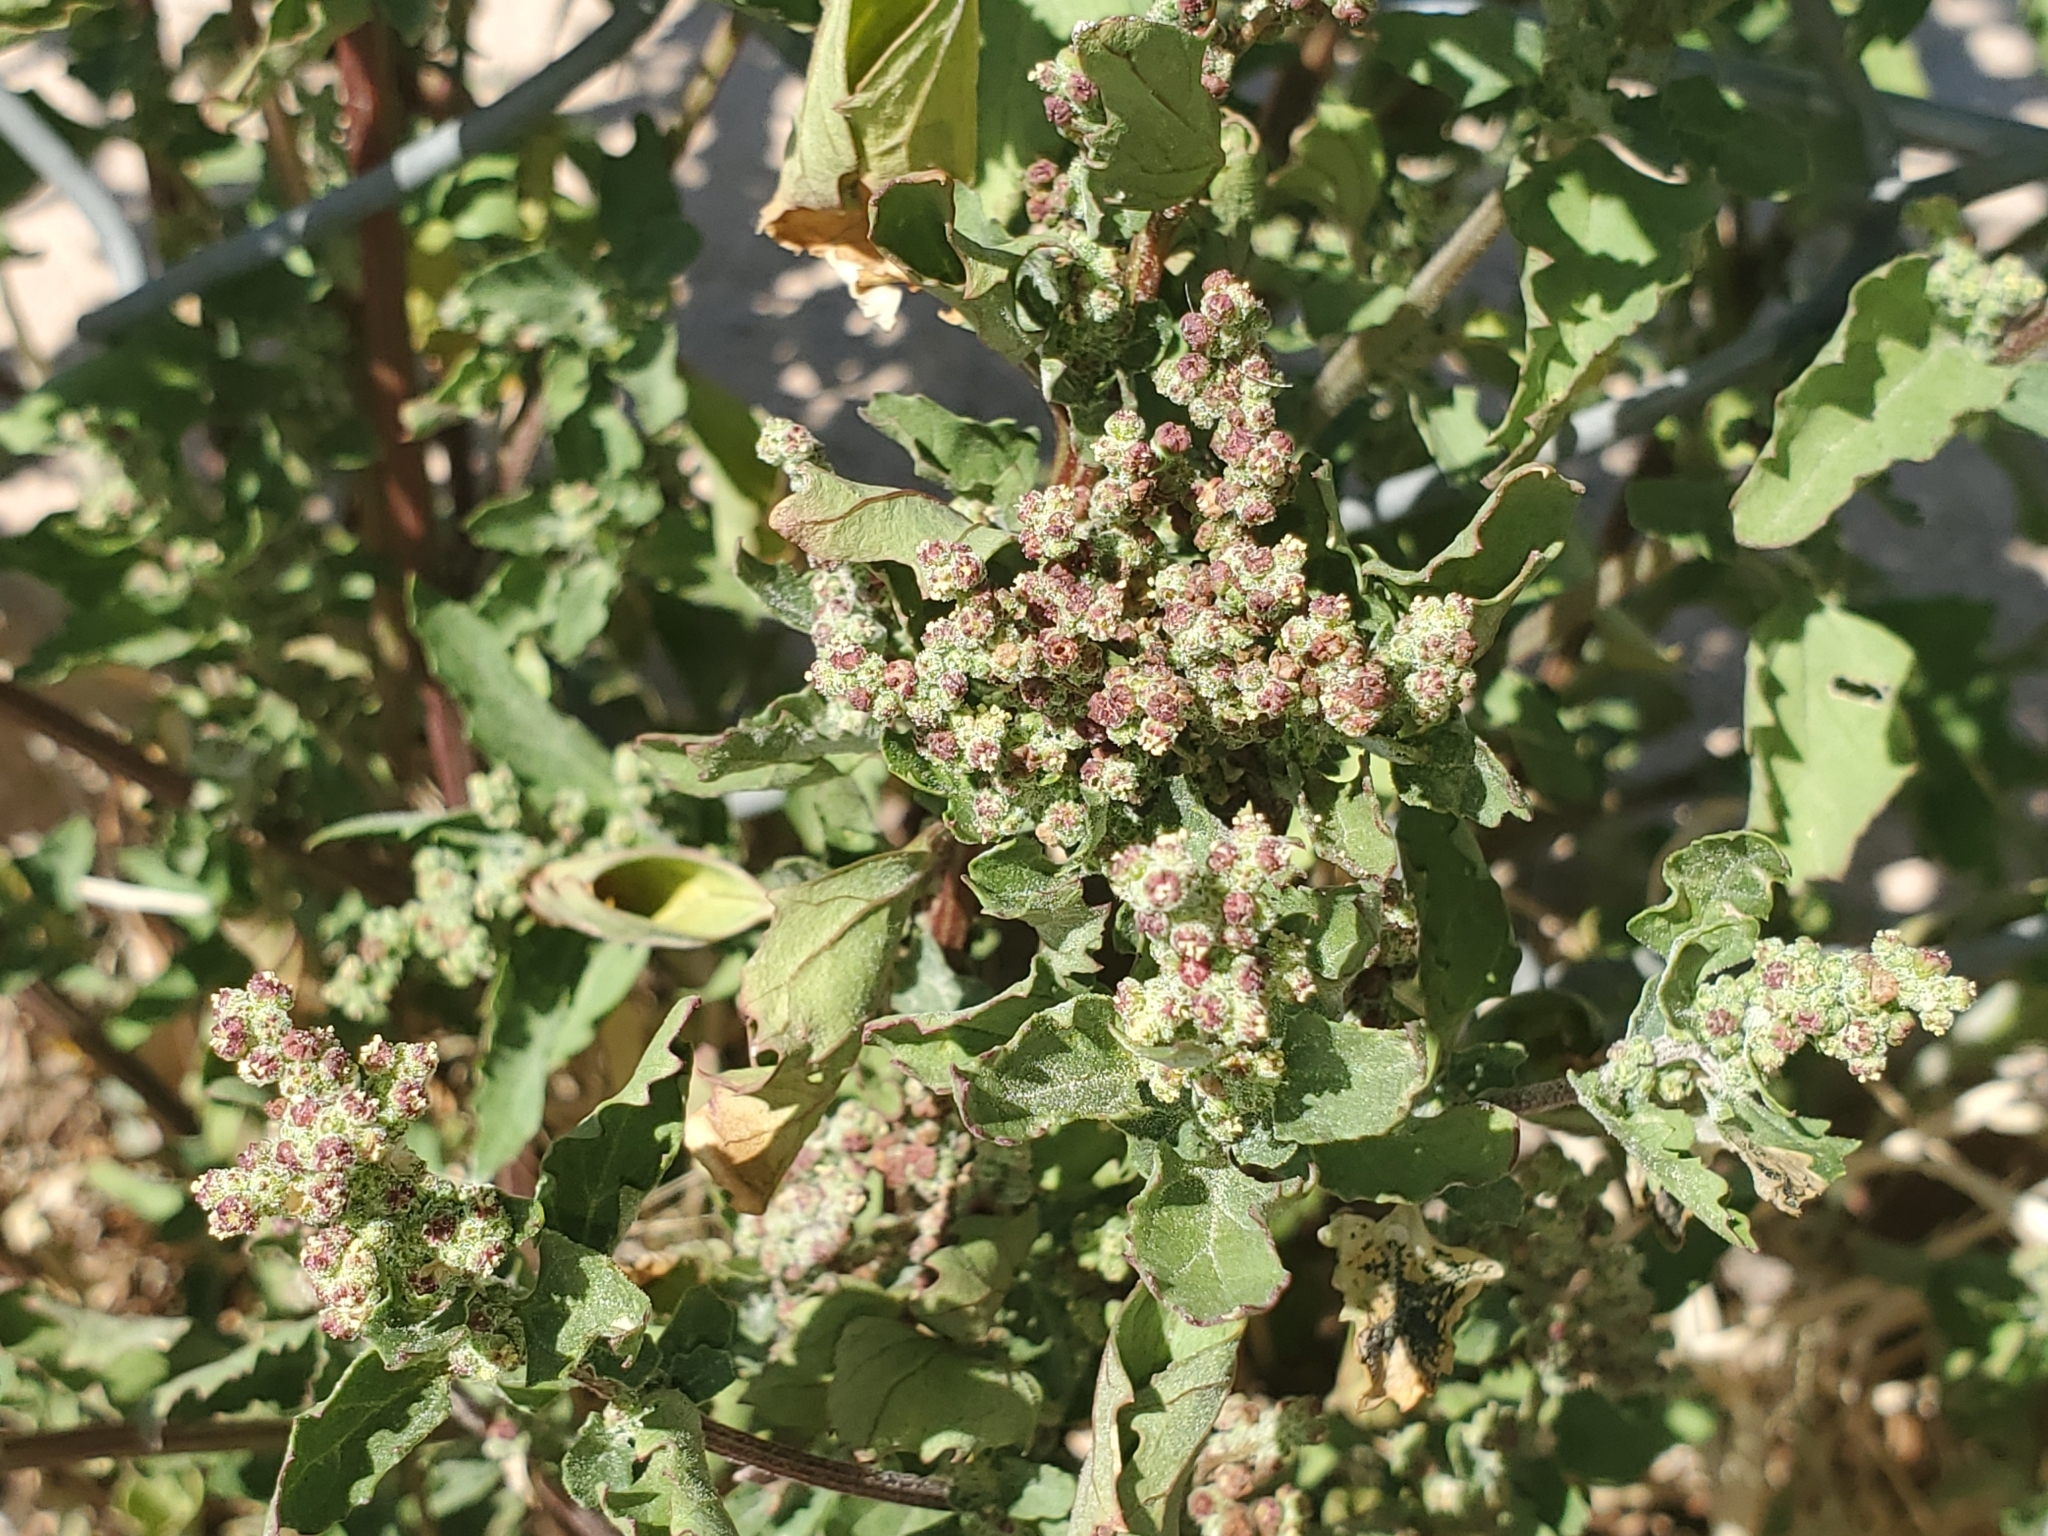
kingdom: Plantae
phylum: Tracheophyta
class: Magnoliopsida
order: Caryophyllales
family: Amaranthaceae
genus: Chenopodiastrum
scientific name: Chenopodiastrum murale
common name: Sowbane
